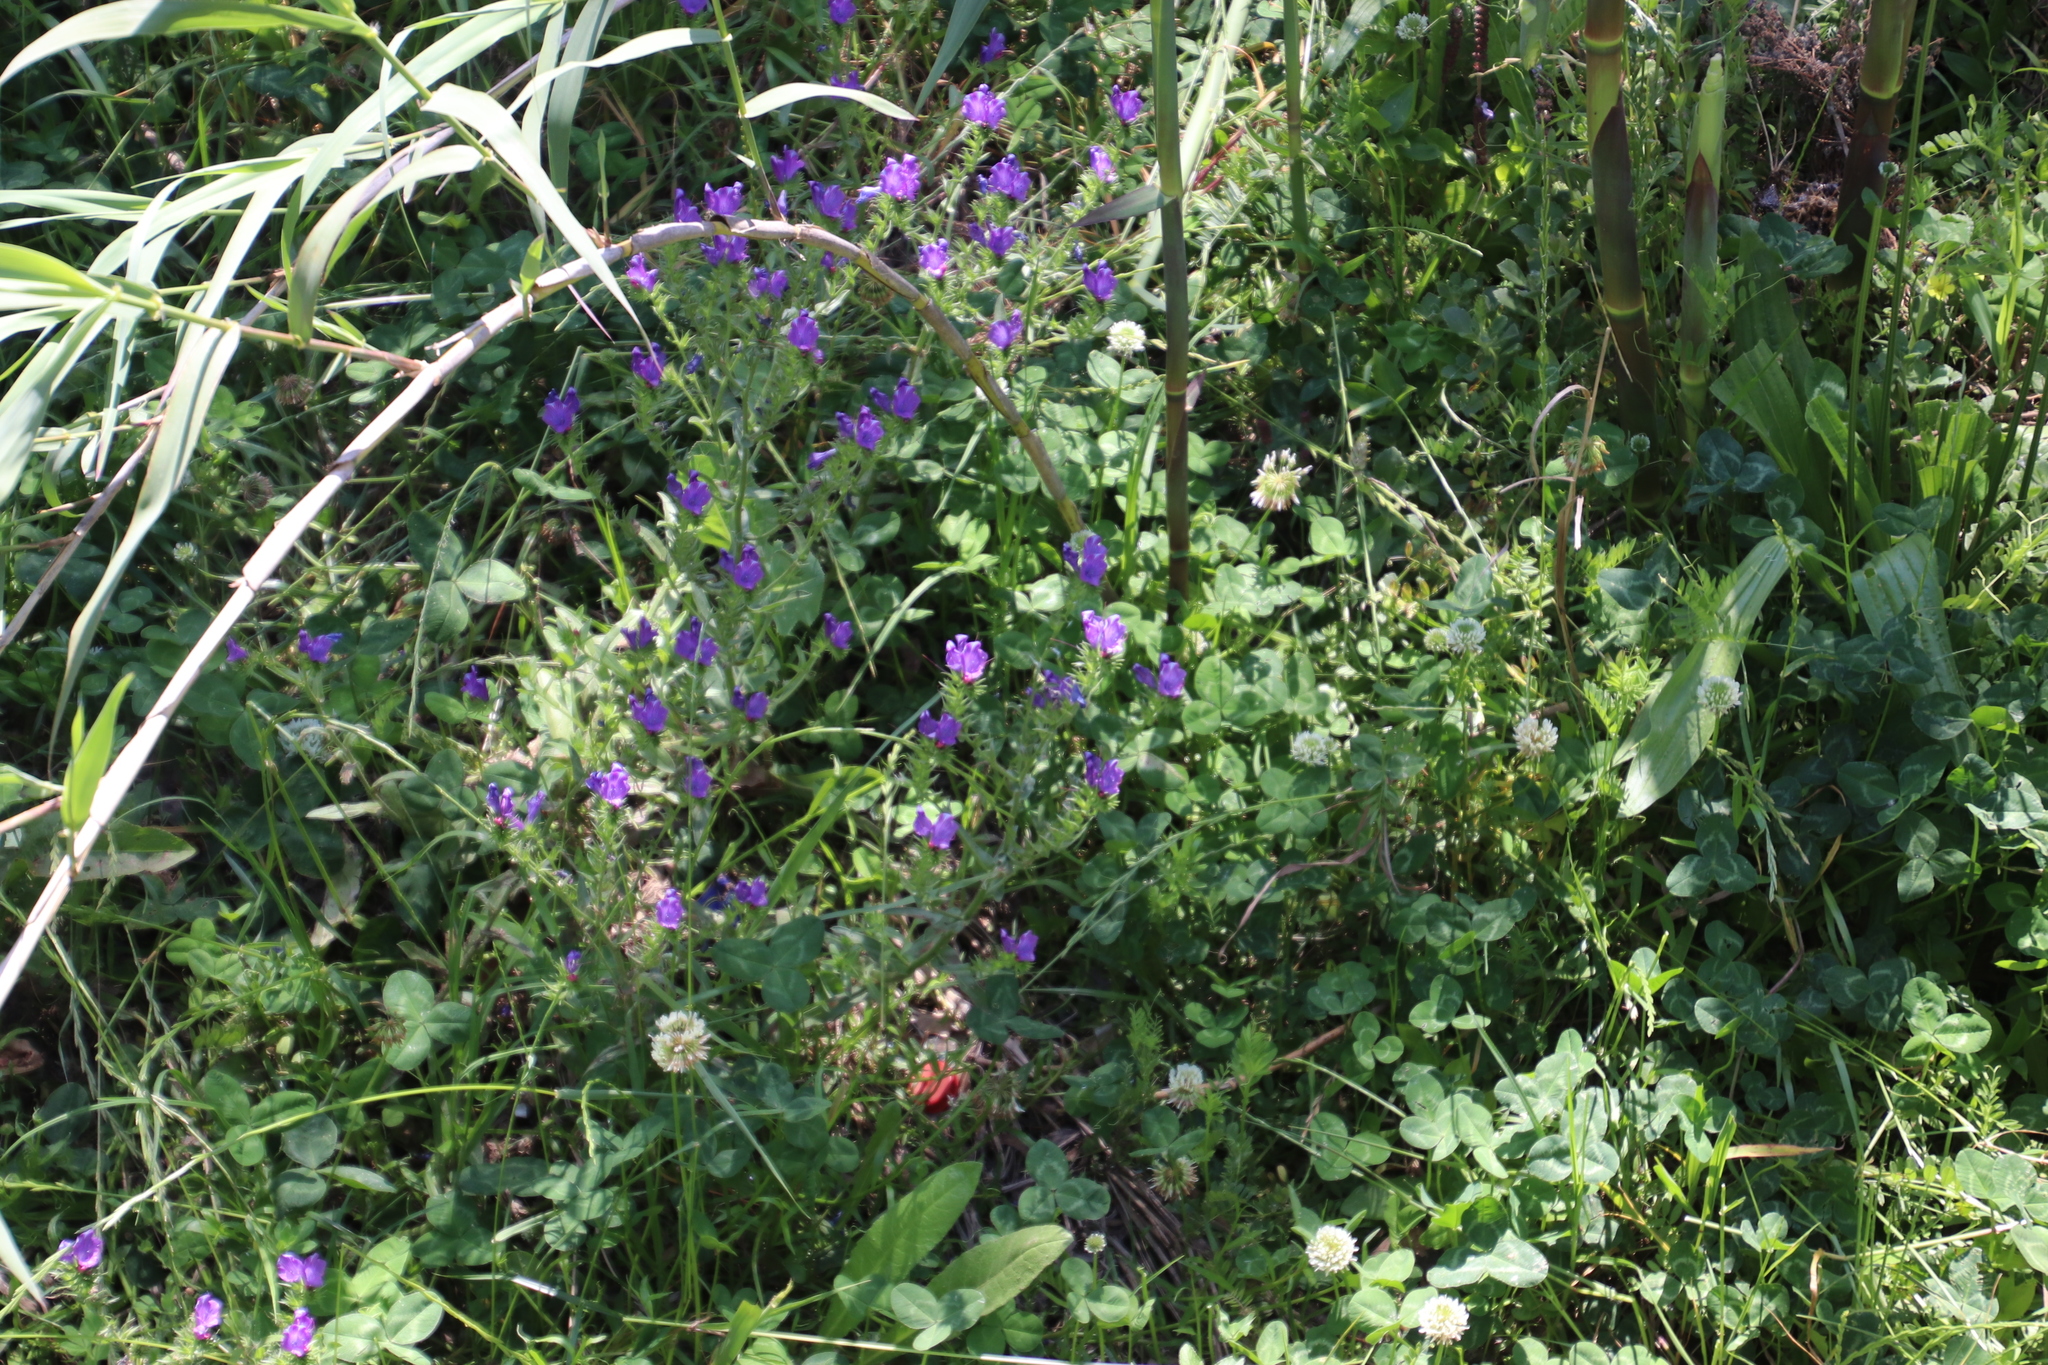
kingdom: Plantae
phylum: Tracheophyta
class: Magnoliopsida
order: Boraginales
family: Boraginaceae
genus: Echium
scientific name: Echium plantagineum
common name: Purple viper's-bugloss
